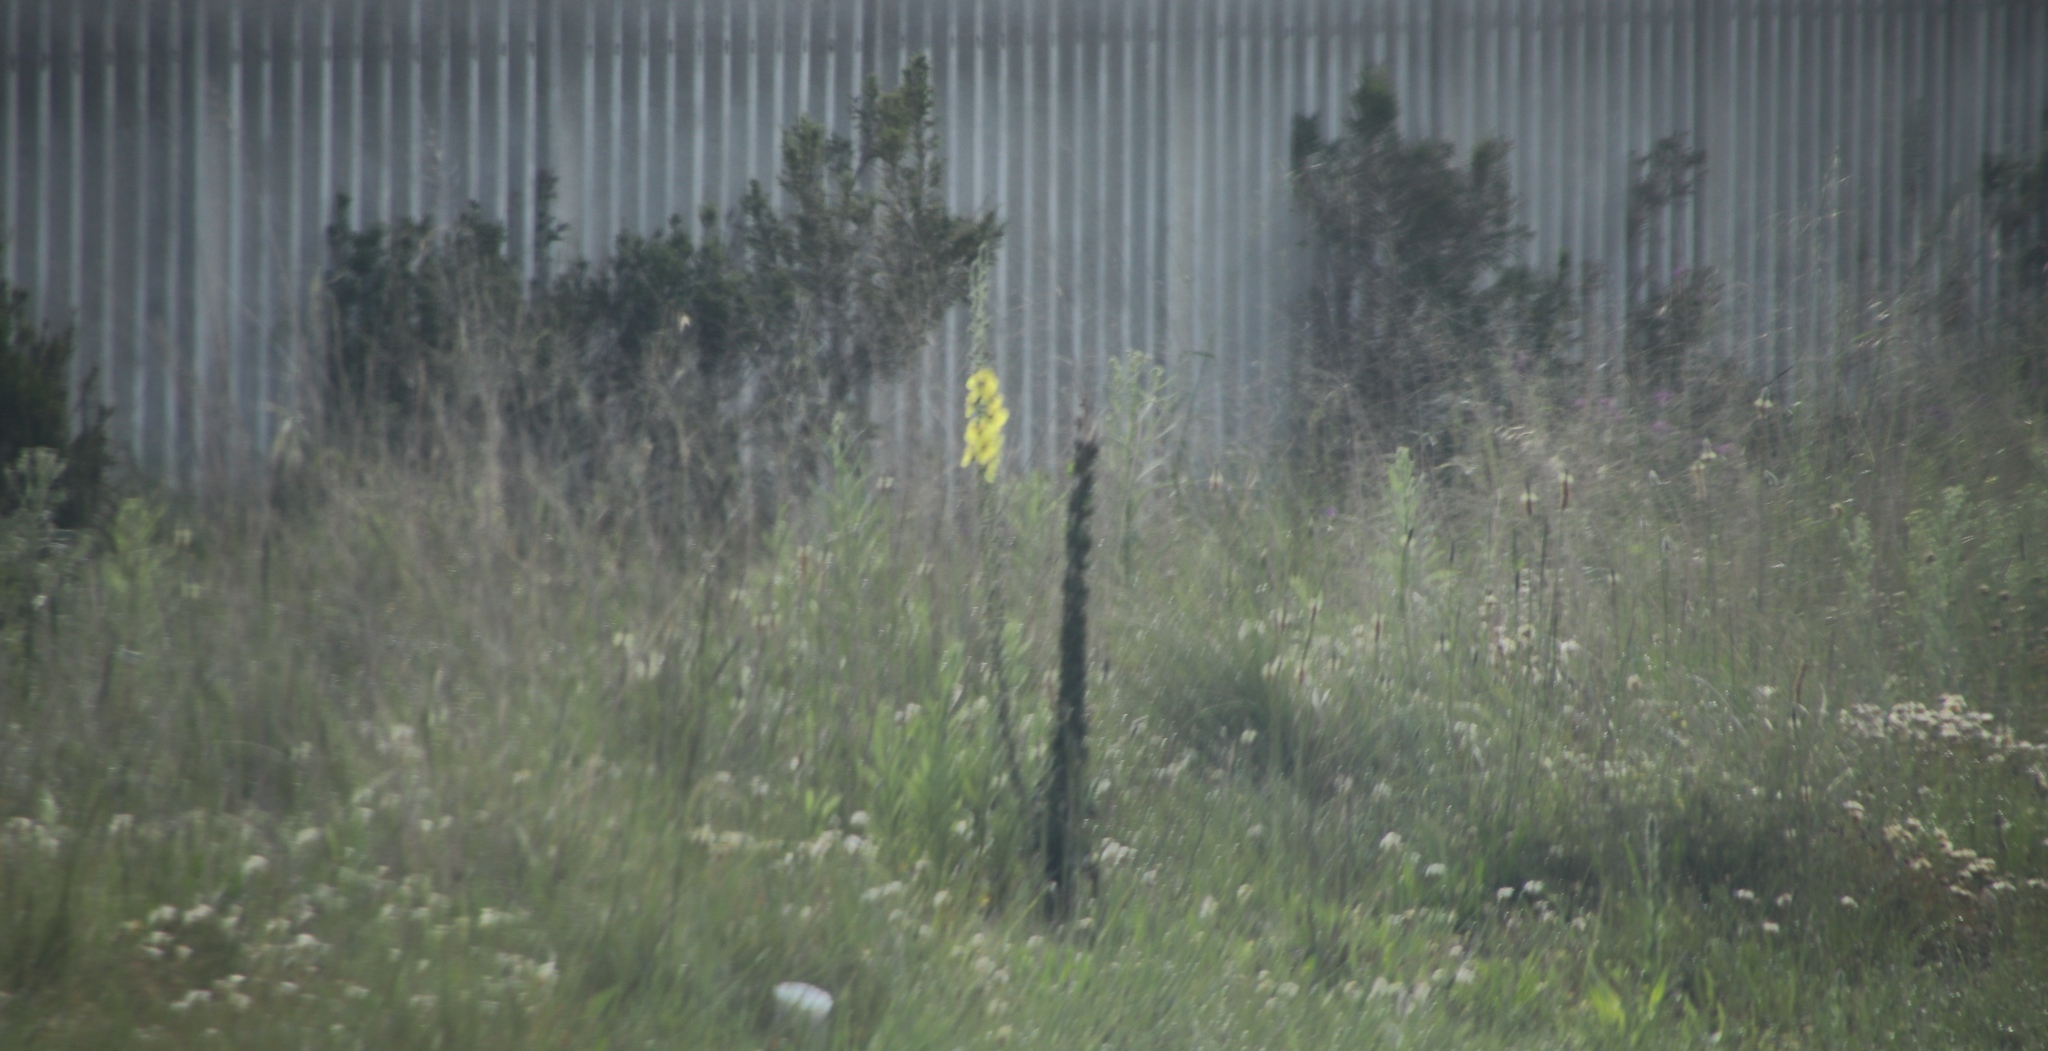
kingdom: Plantae
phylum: Tracheophyta
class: Magnoliopsida
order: Lamiales
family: Scrophulariaceae
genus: Verbascum
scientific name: Verbascum virgatum
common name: Twiggy mullein
